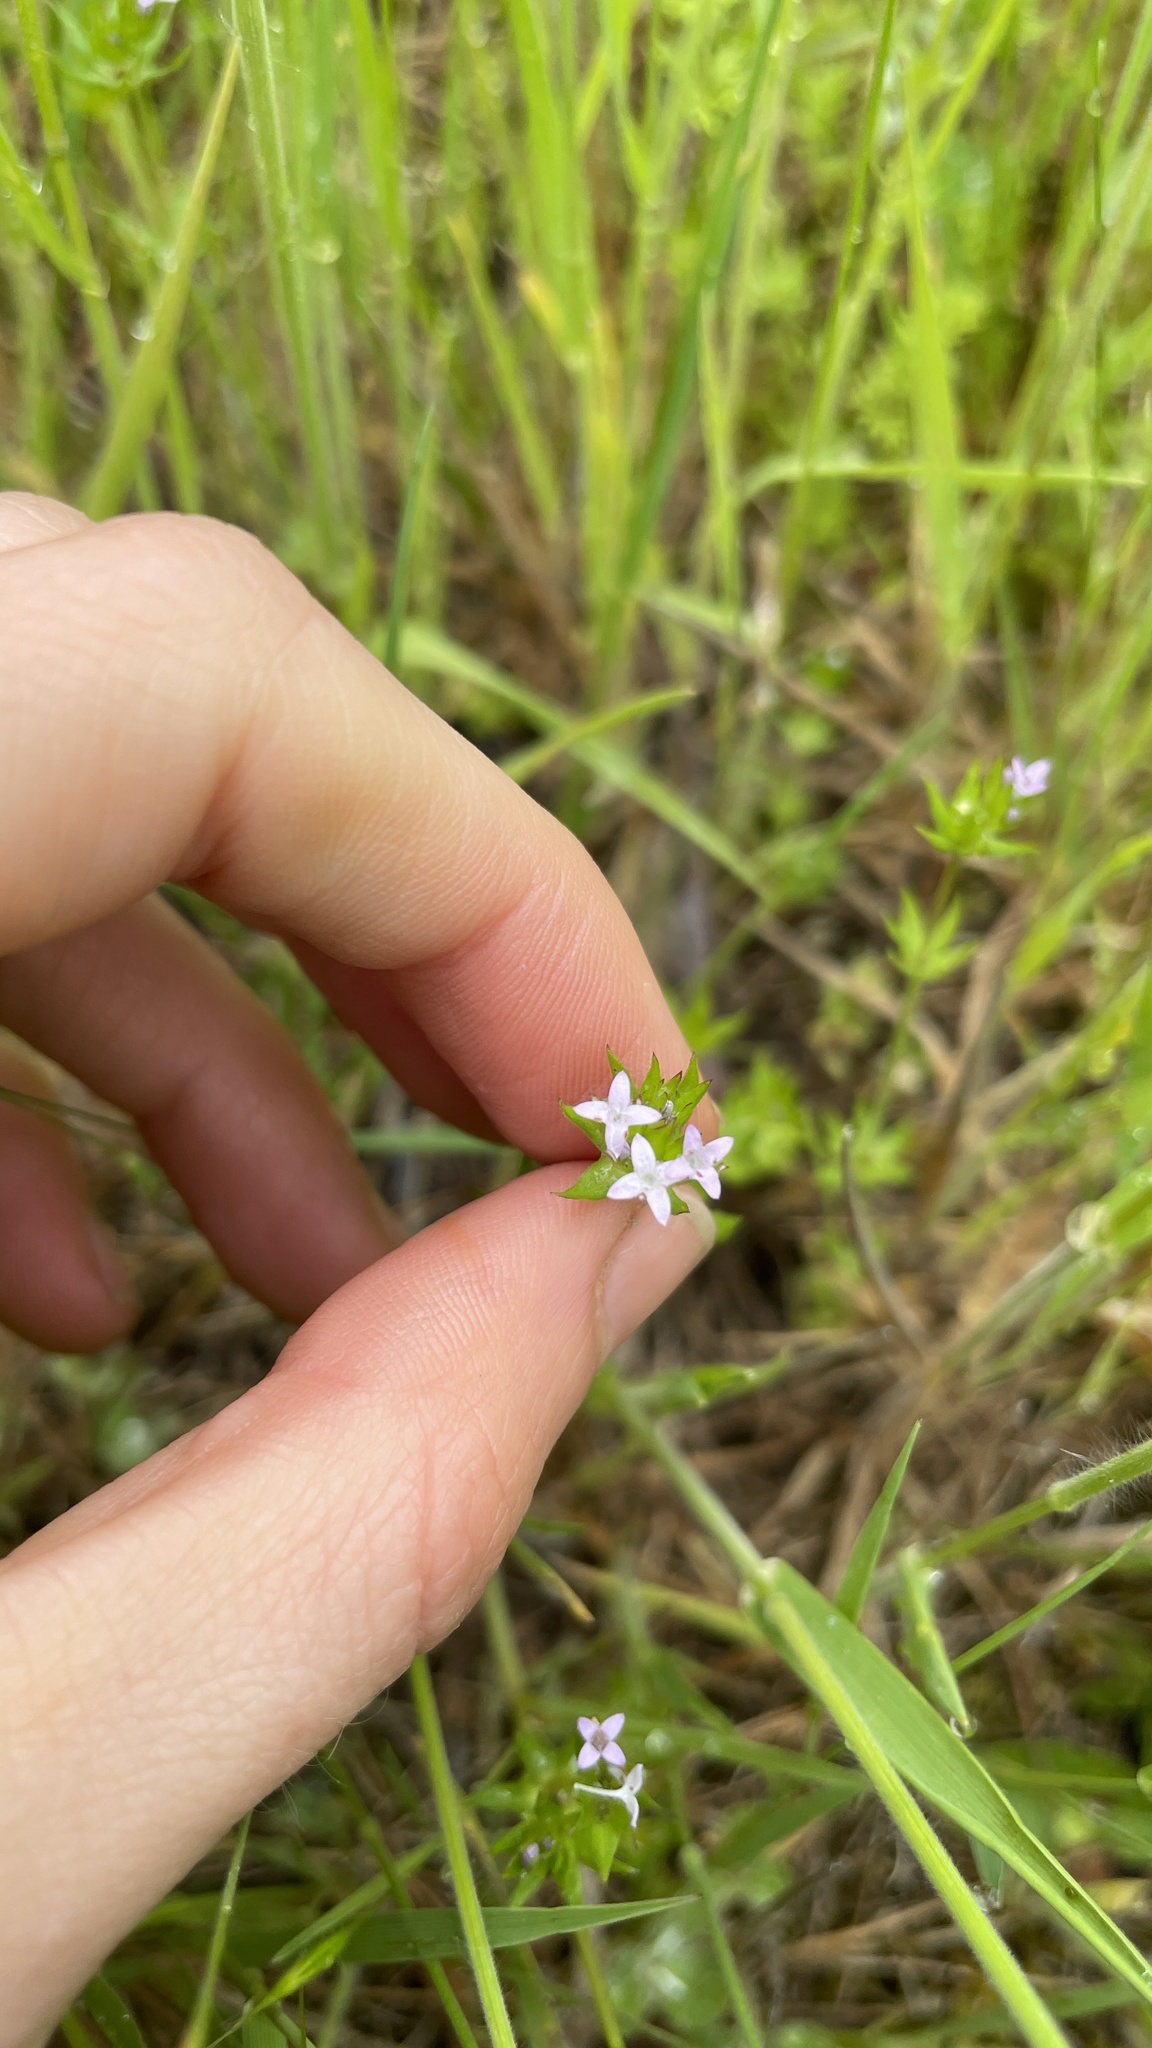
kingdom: Plantae
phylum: Tracheophyta
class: Magnoliopsida
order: Gentianales
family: Rubiaceae
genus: Sherardia
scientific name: Sherardia arvensis
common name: Field madder
